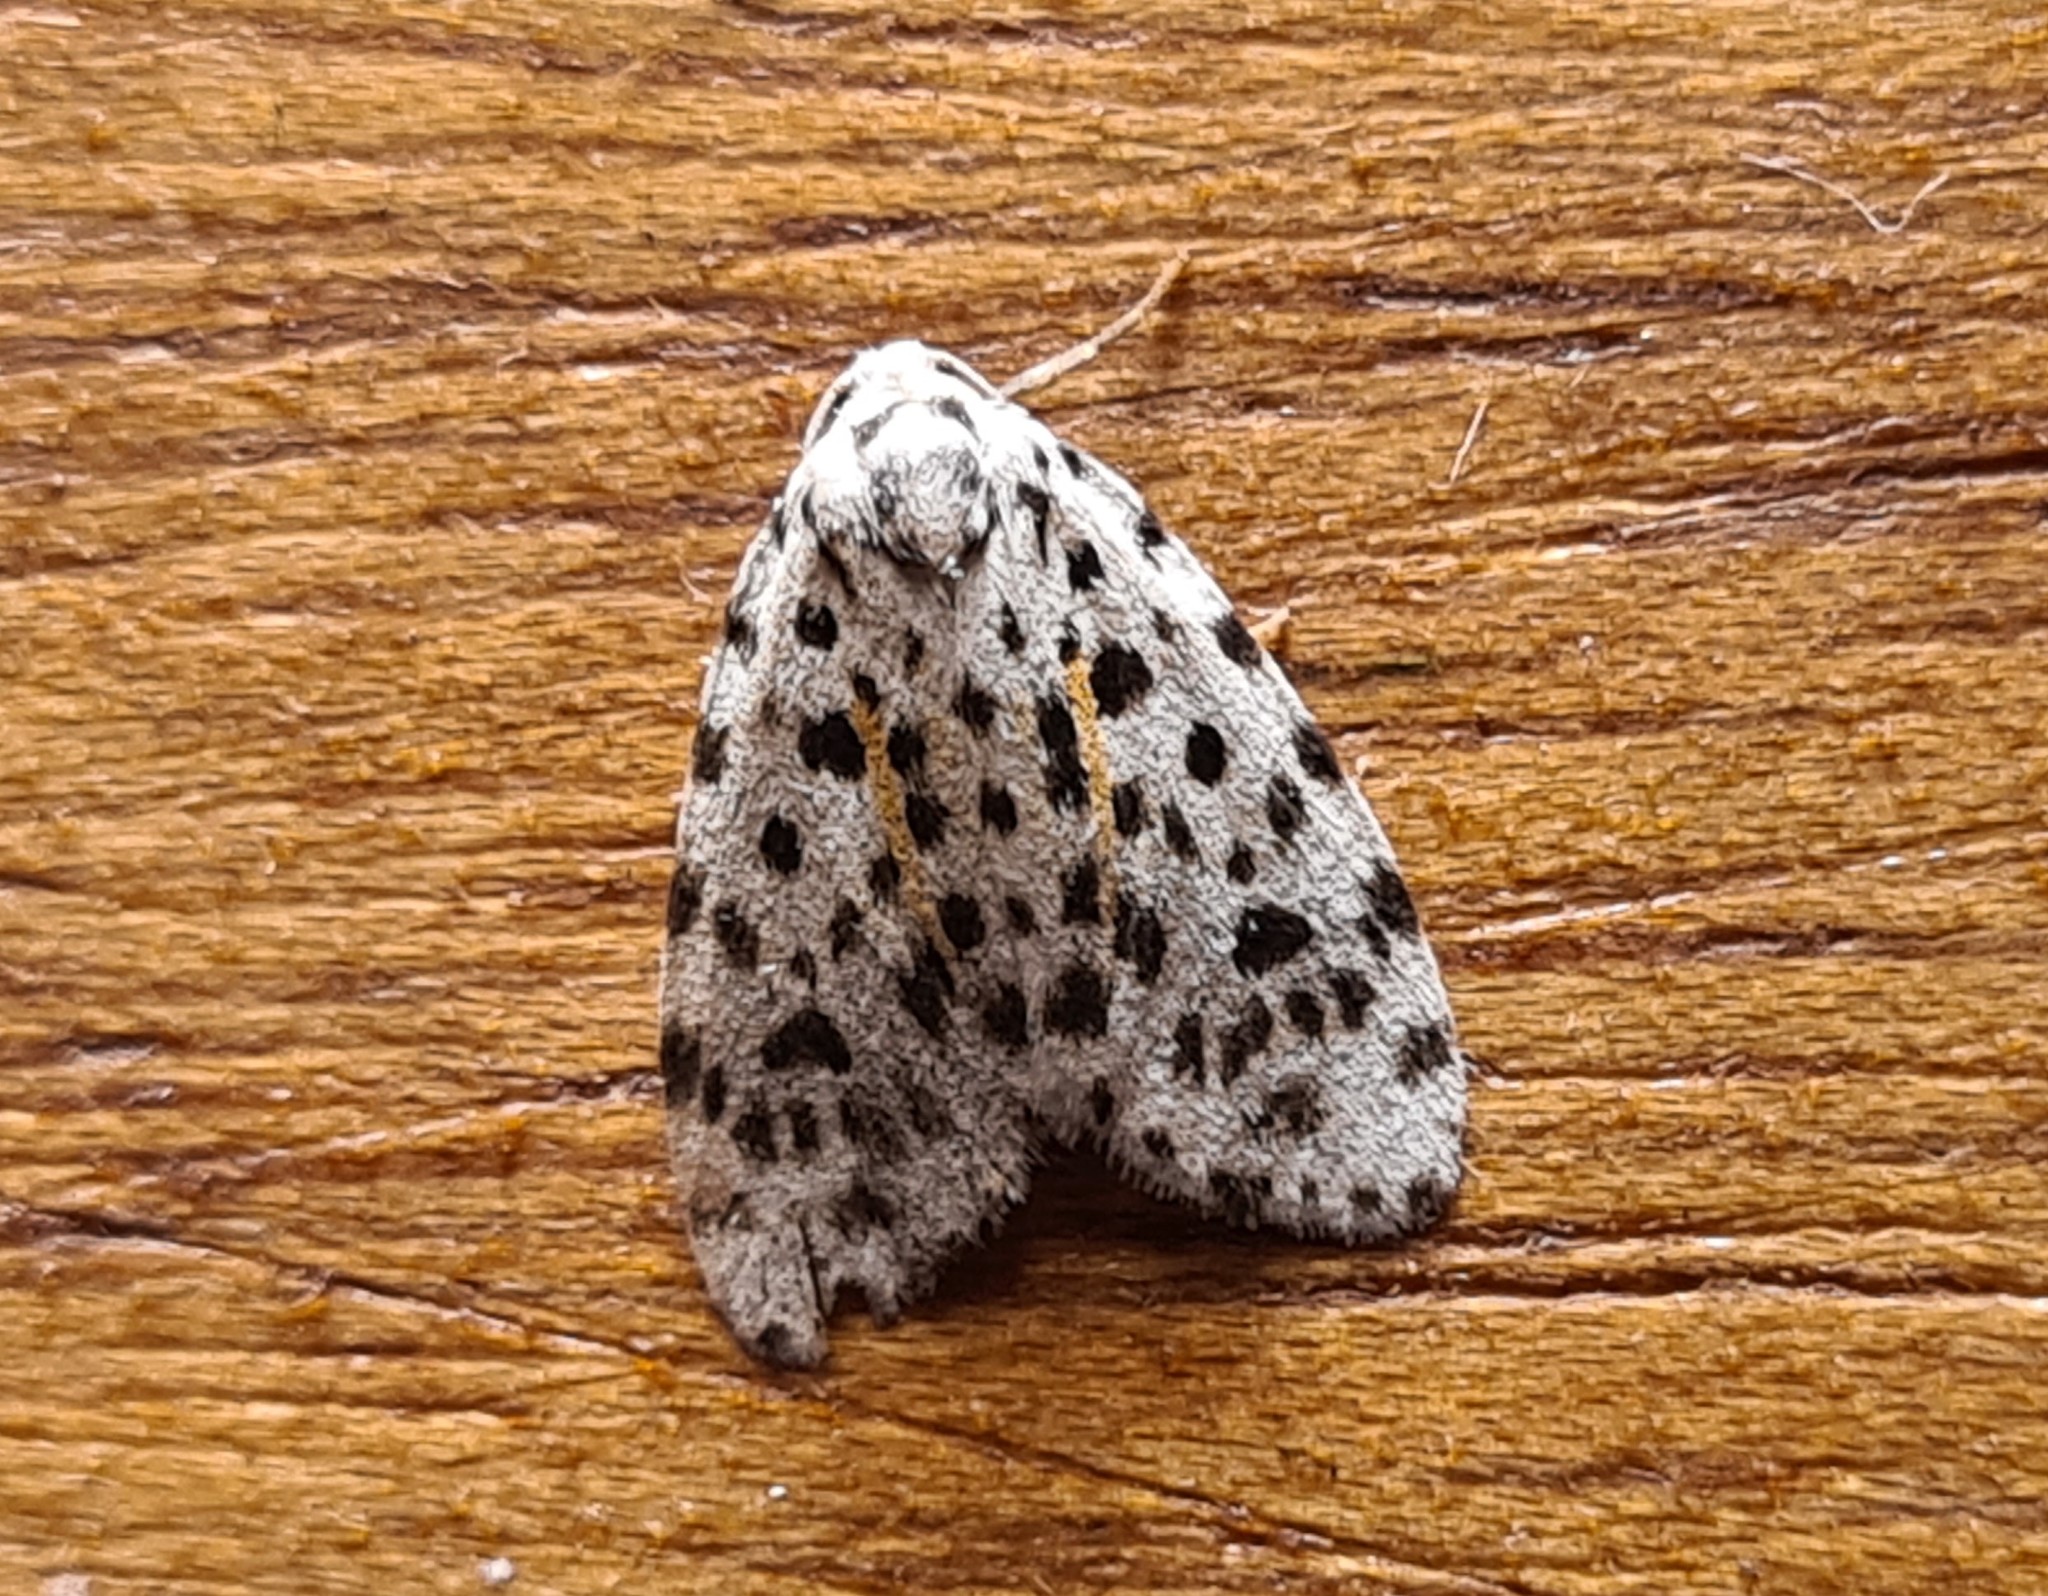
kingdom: Animalia
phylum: Arthropoda
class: Insecta
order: Lepidoptera
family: Erebidae
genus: Clemensia
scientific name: Clemensia leopardina
